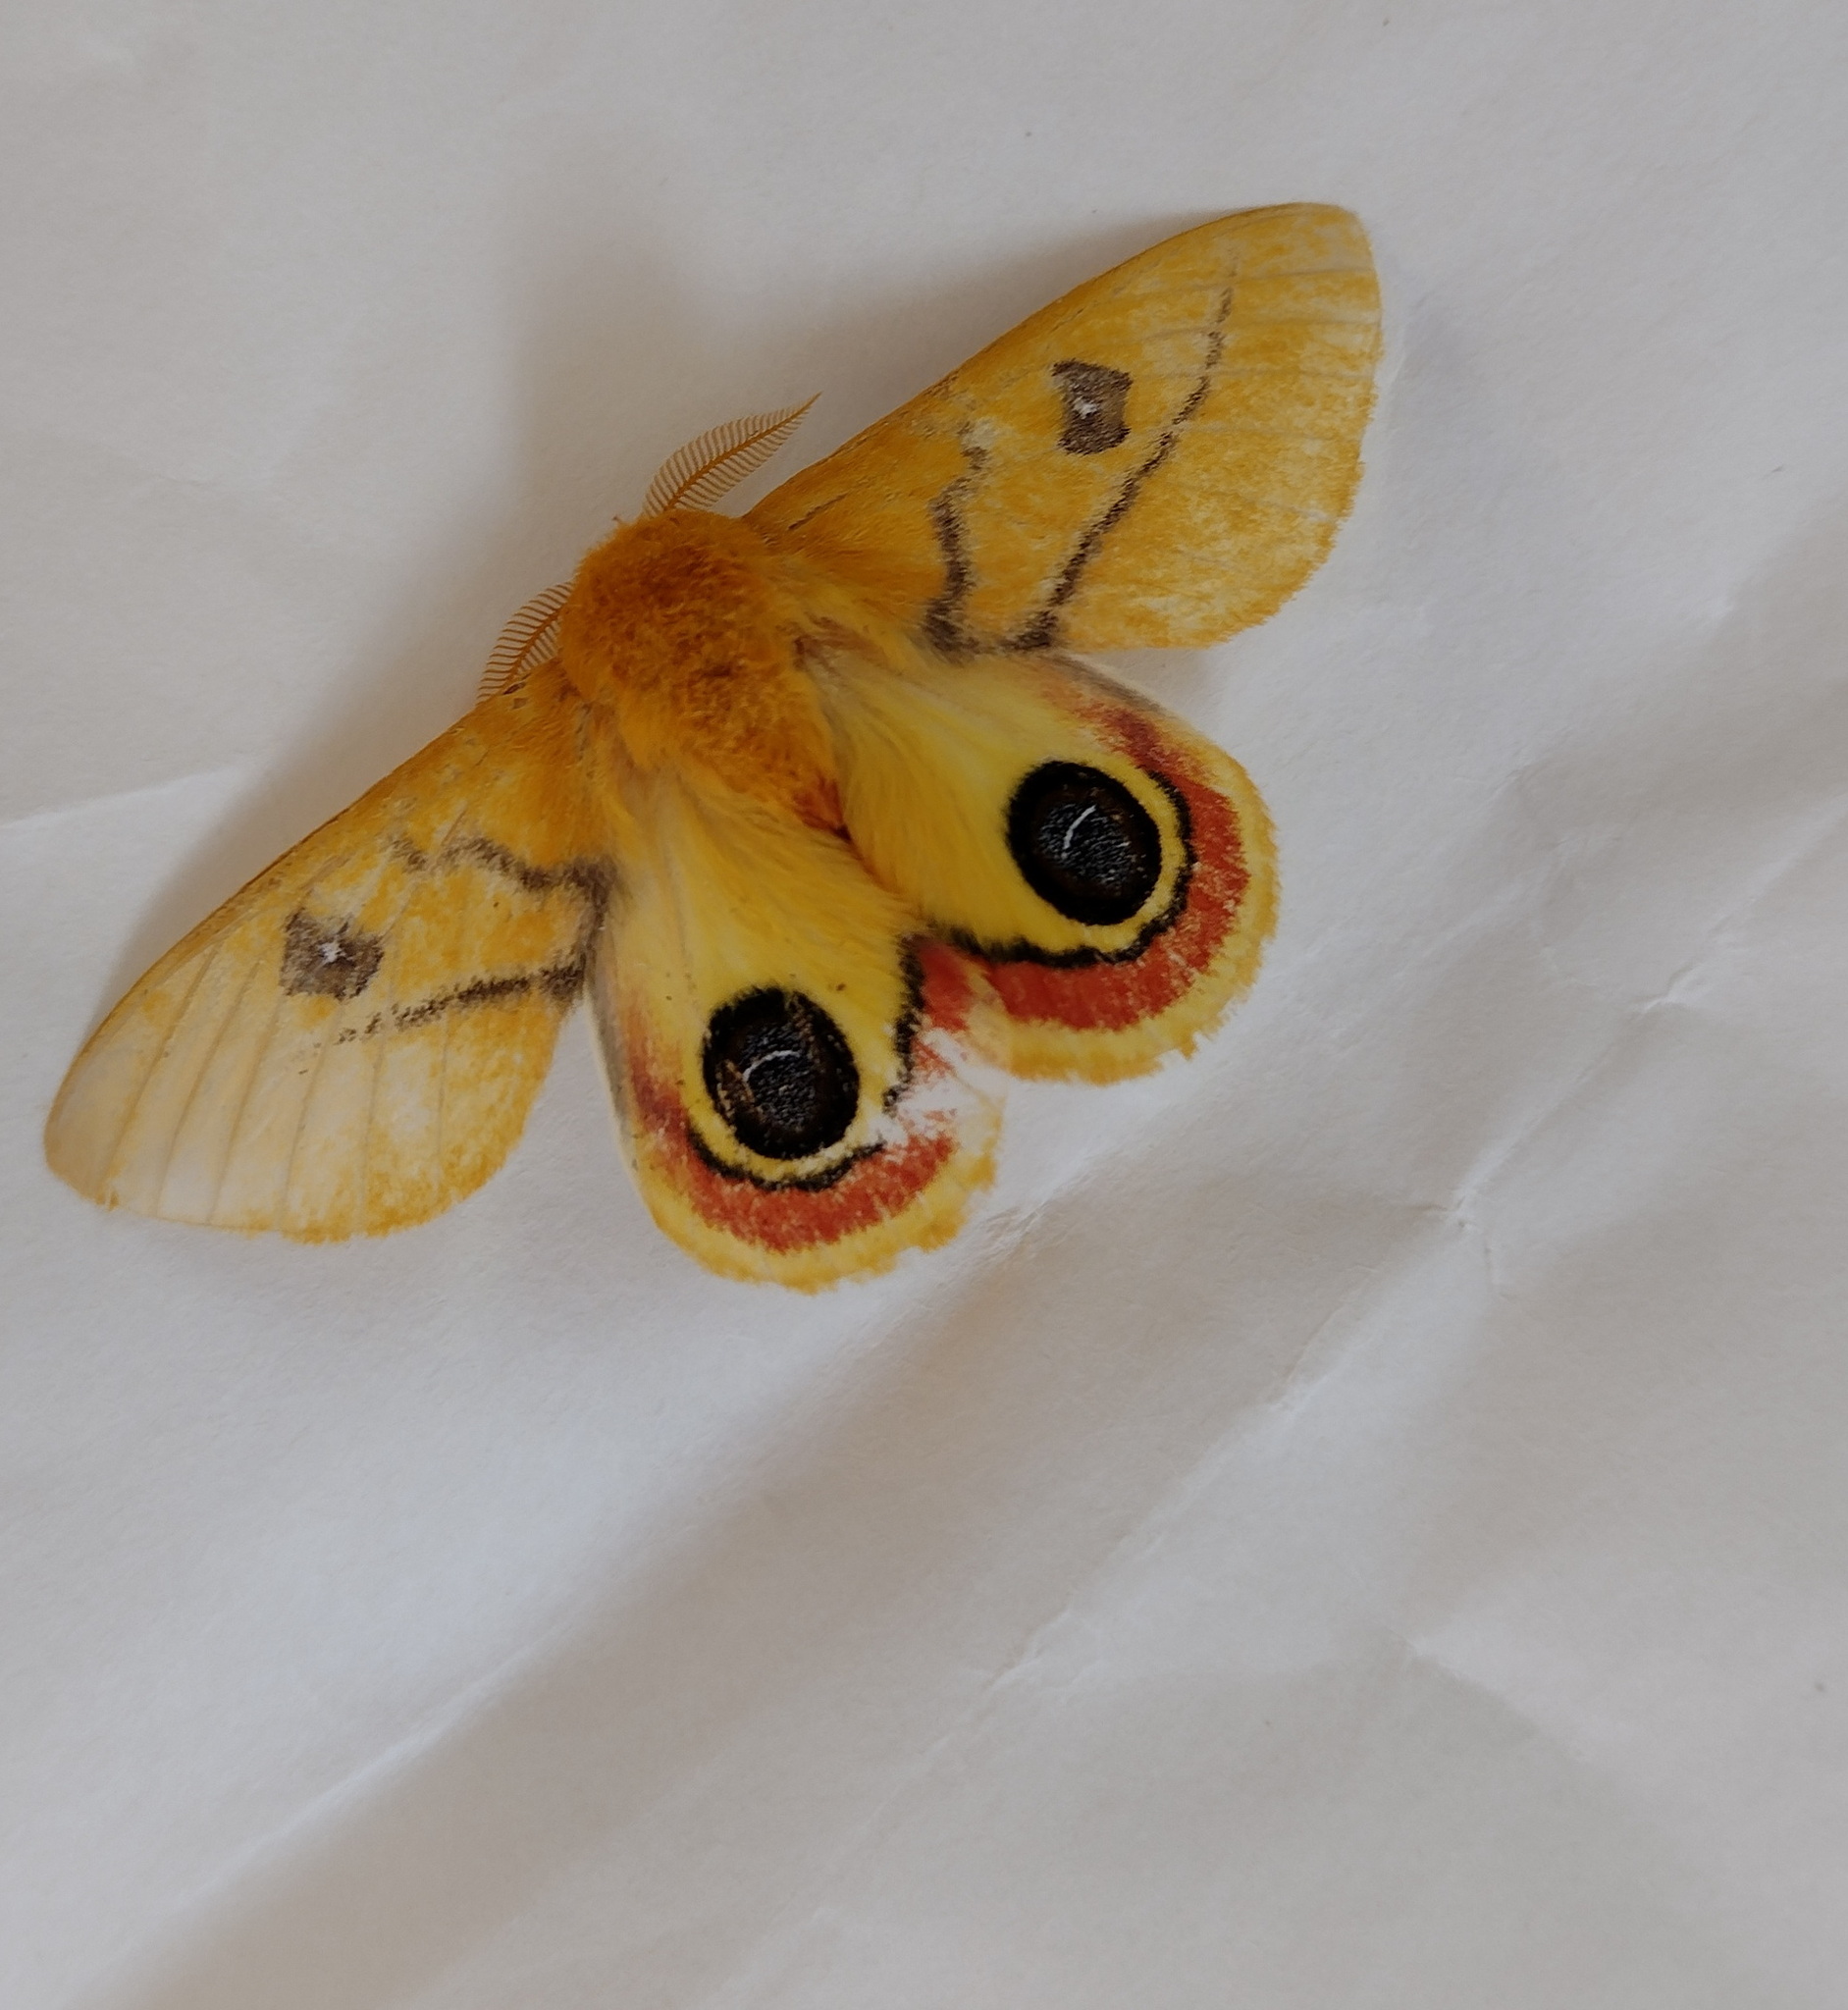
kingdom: Animalia
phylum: Arthropoda
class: Insecta
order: Lepidoptera
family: Saturniidae
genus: Automeris
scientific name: Automeris jolantheae
